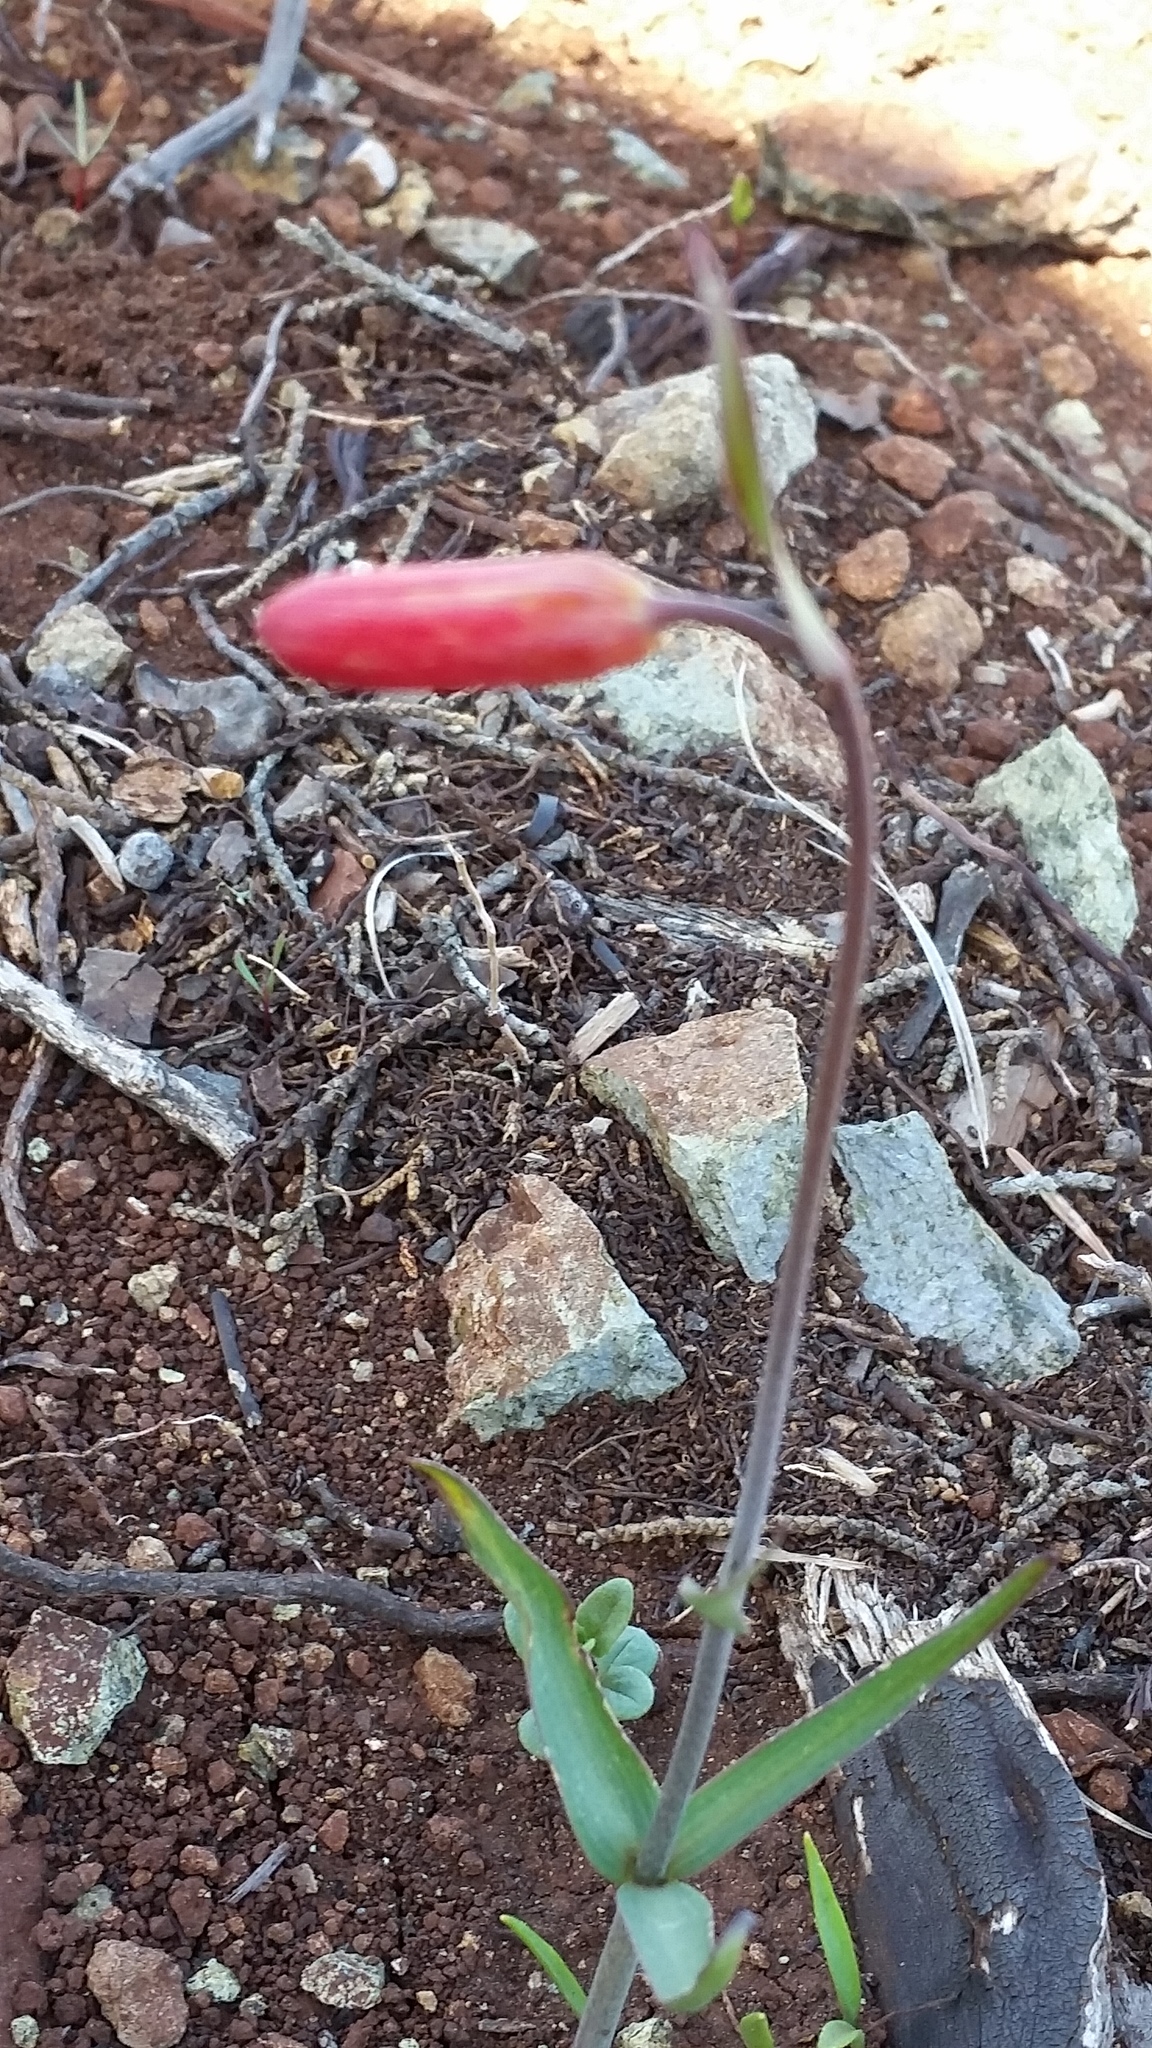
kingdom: Plantae
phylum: Tracheophyta
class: Liliopsida
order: Liliales
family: Liliaceae
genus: Fritillaria
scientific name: Fritillaria recurva
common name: Scarlet fritillary
